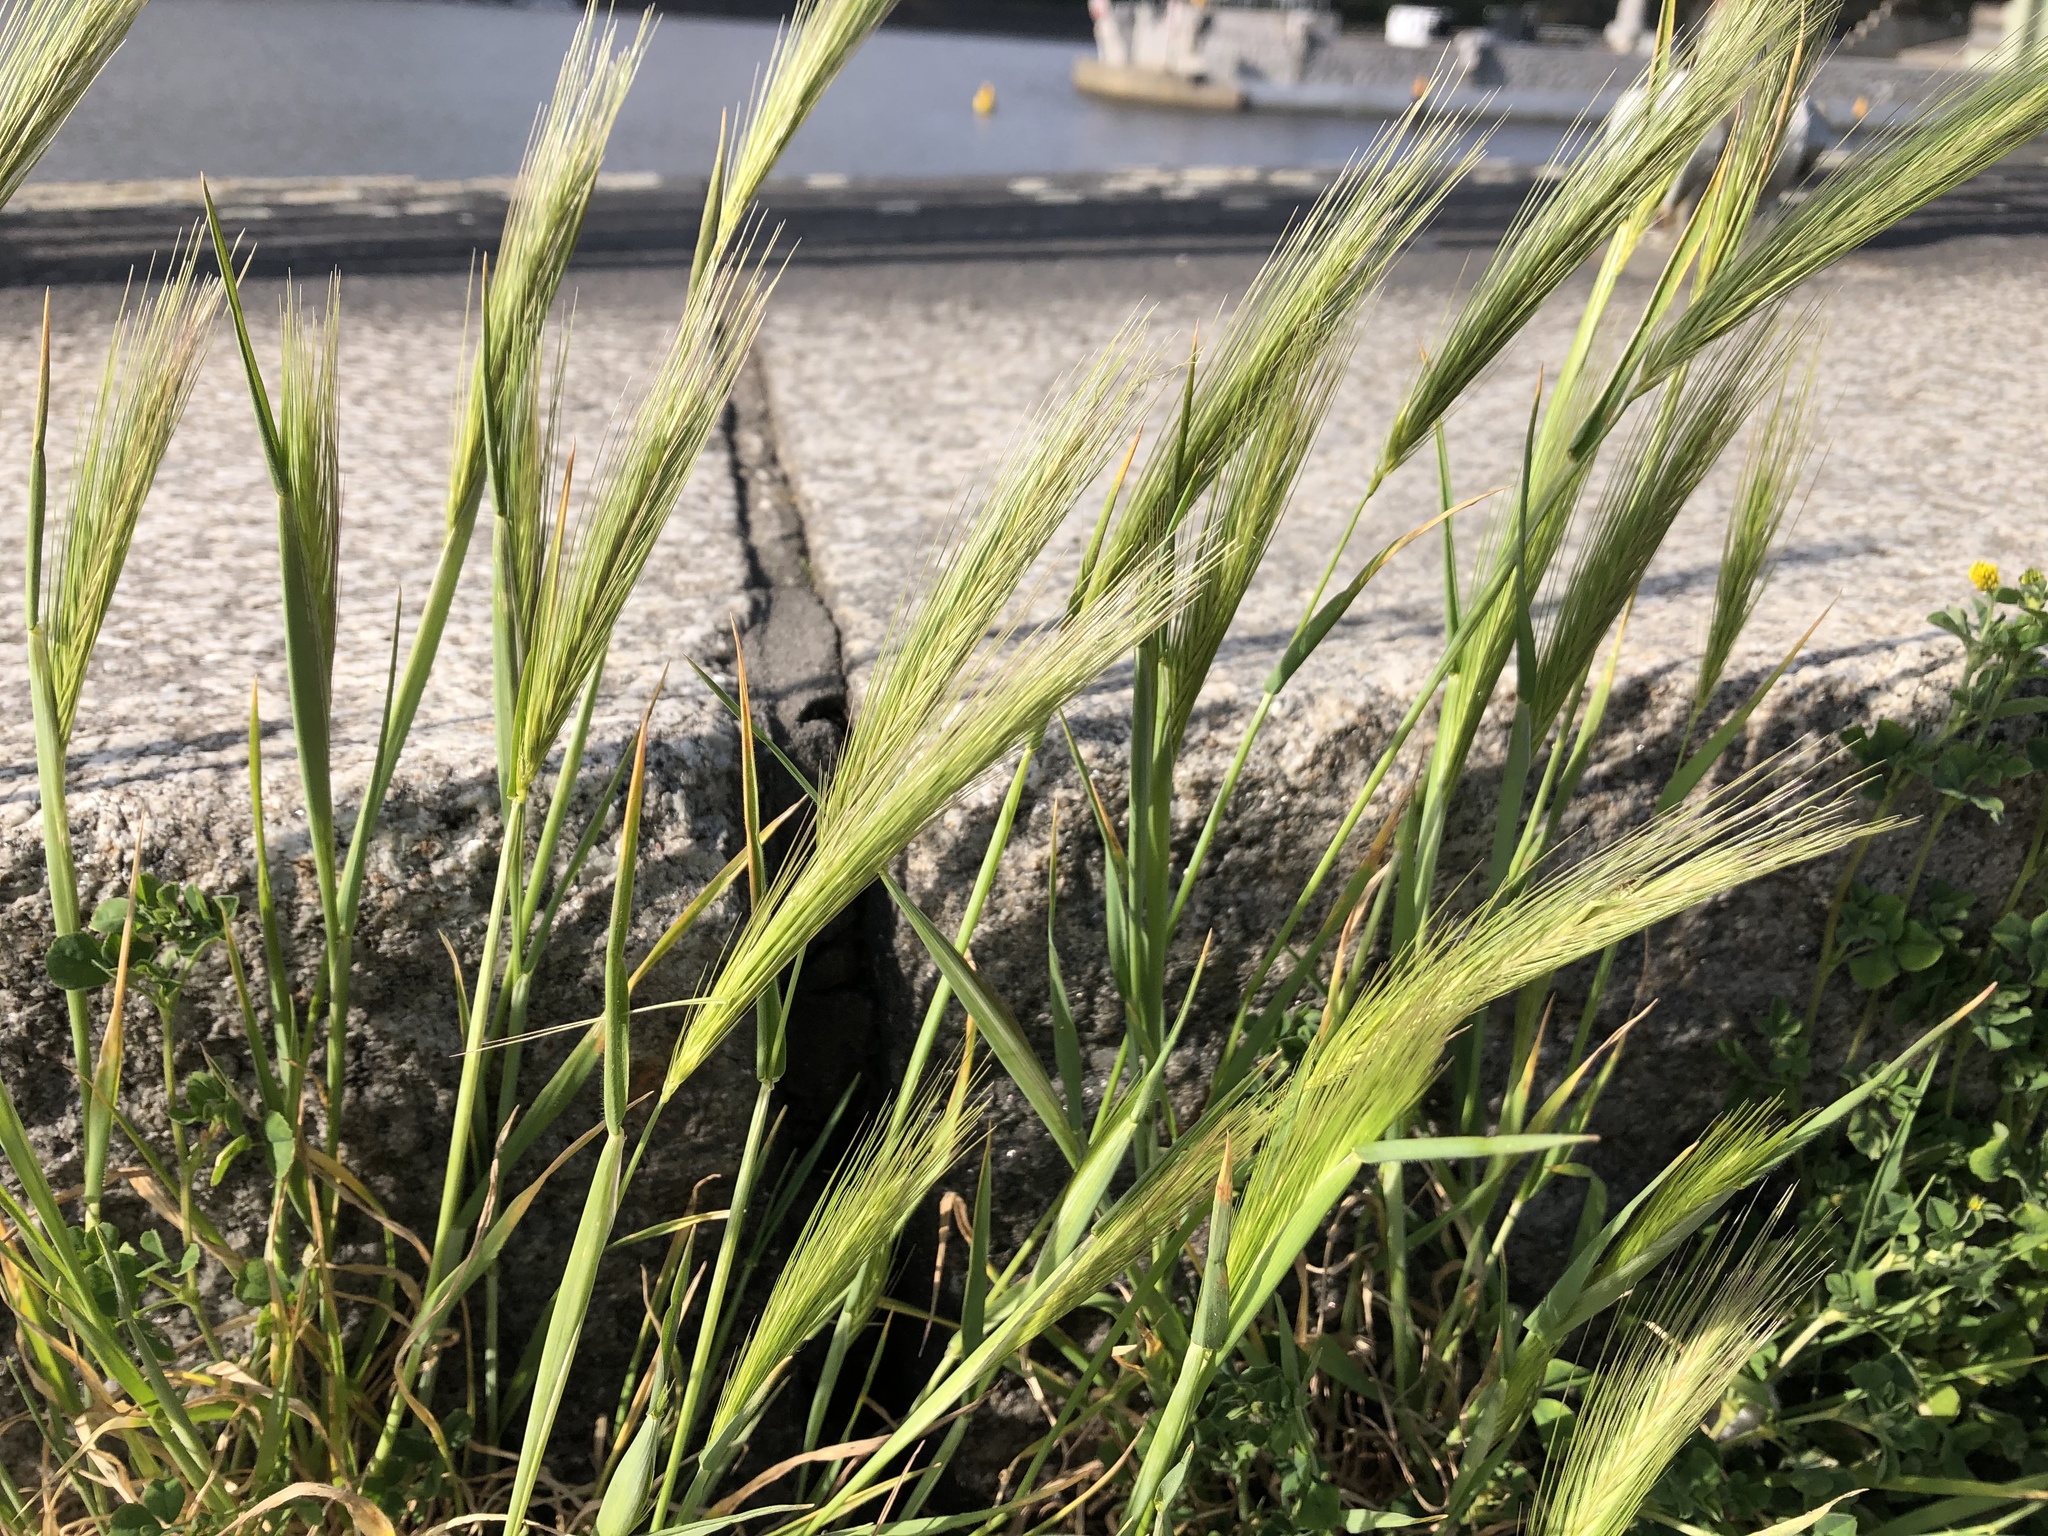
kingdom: Plantae
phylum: Tracheophyta
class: Liliopsida
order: Poales
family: Poaceae
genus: Hordeum
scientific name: Hordeum murinum
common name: Wall barley
